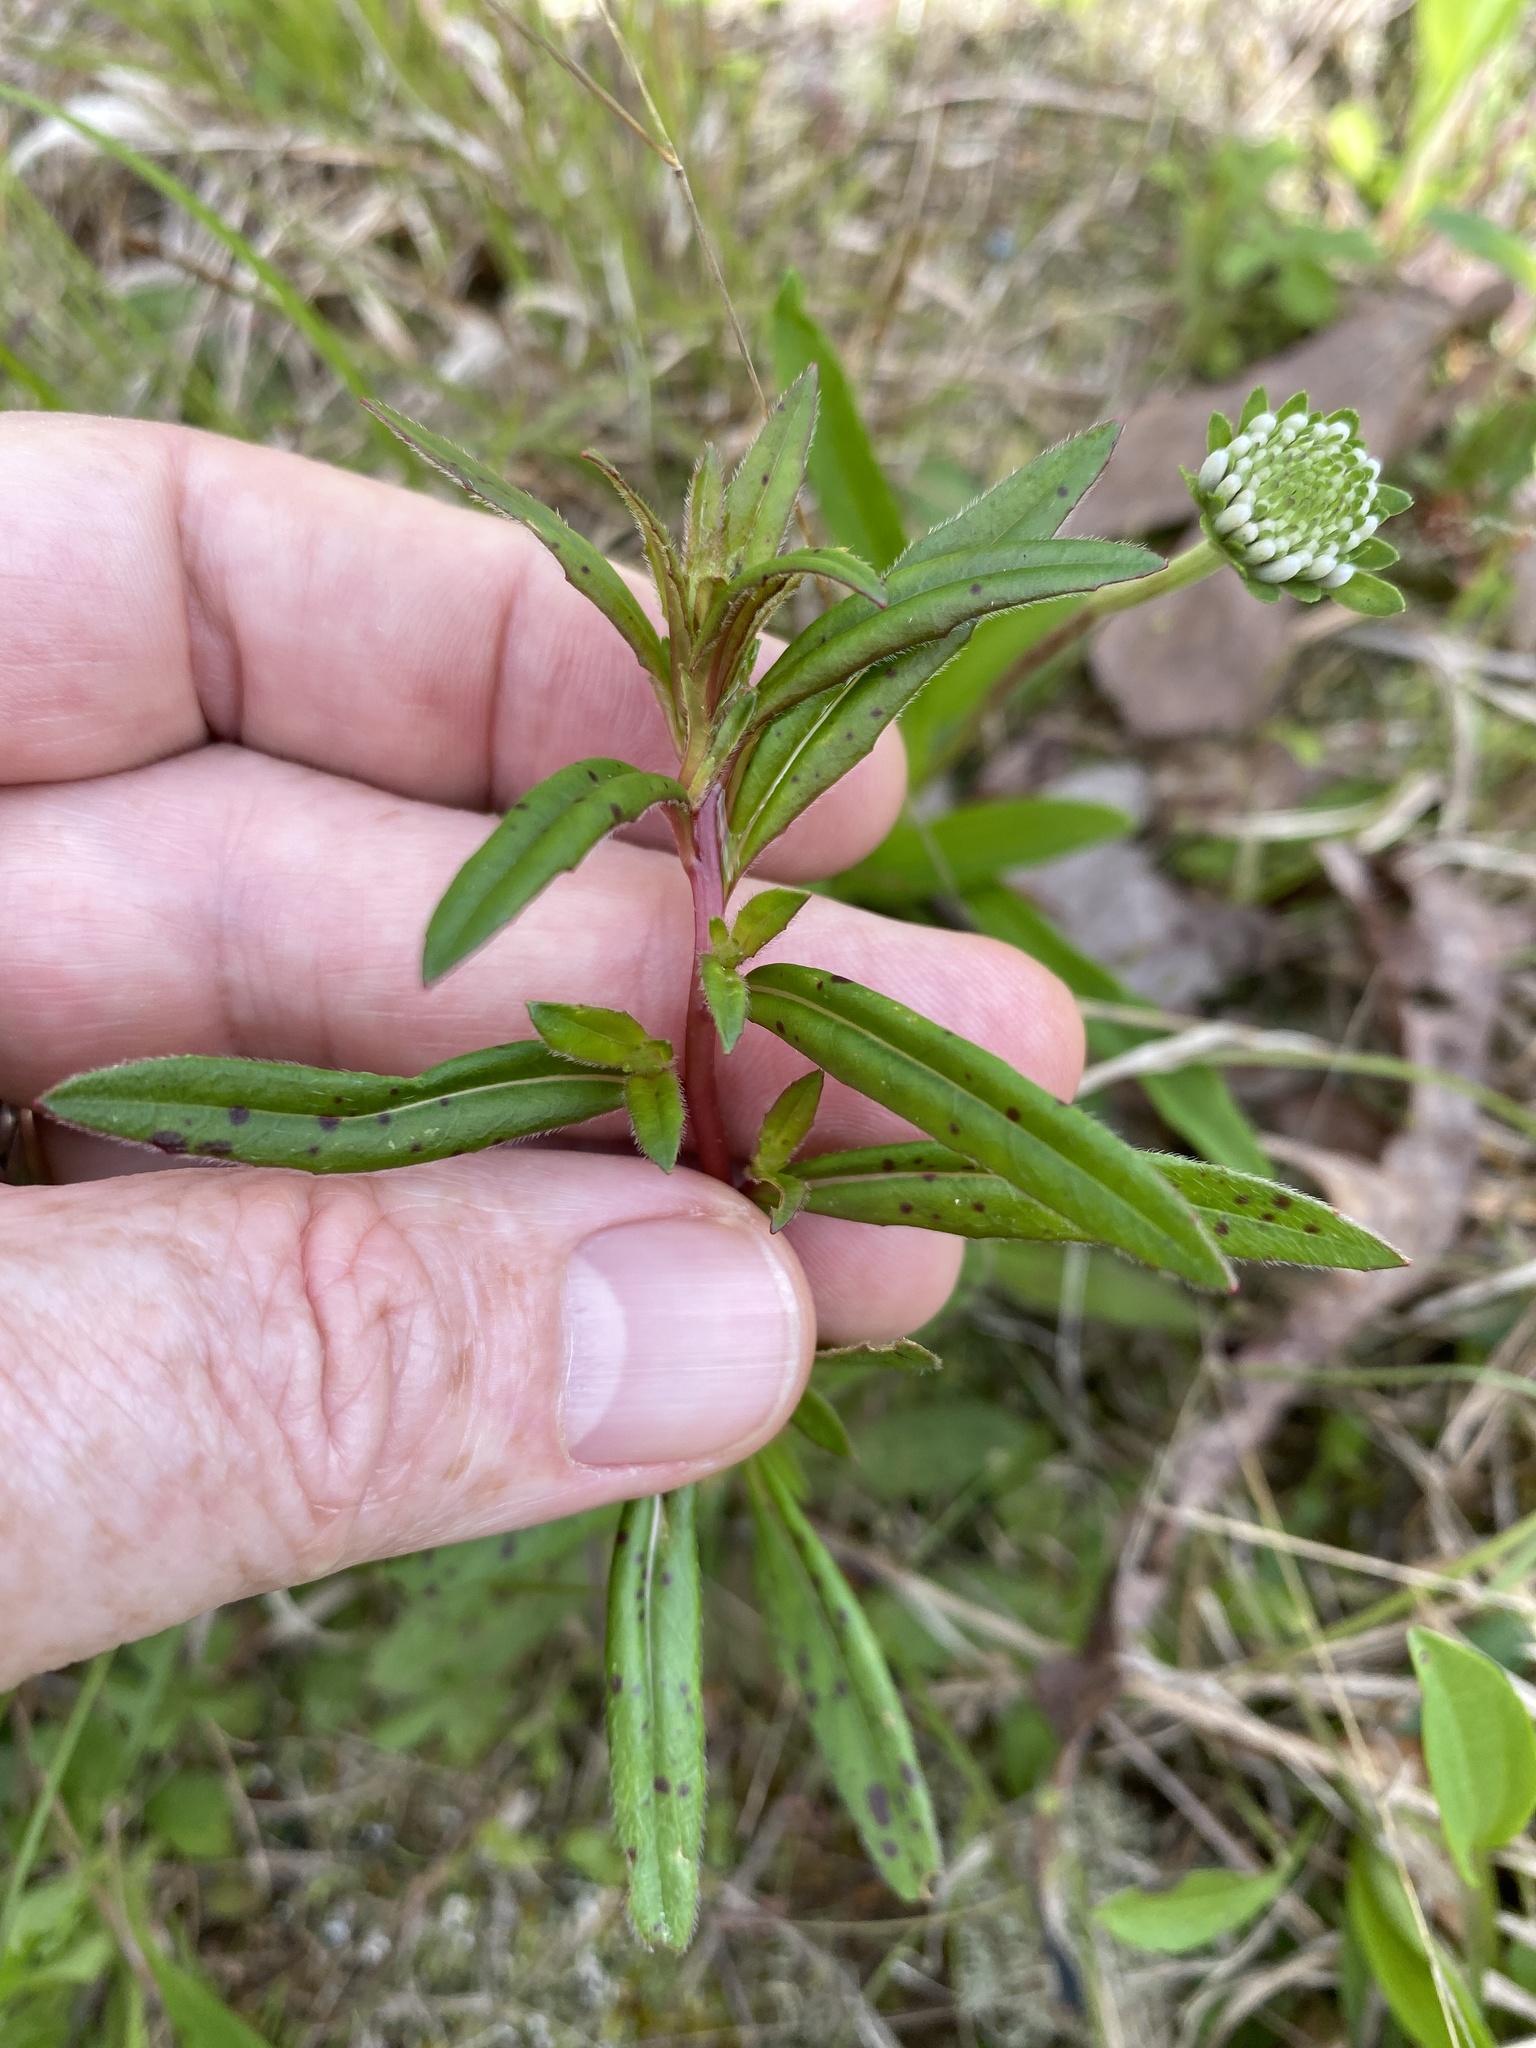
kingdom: Plantae
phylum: Tracheophyta
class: Magnoliopsida
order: Myrtales
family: Onagraceae
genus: Oenothera
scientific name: Oenothera fruticosa
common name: Southern sundrops
